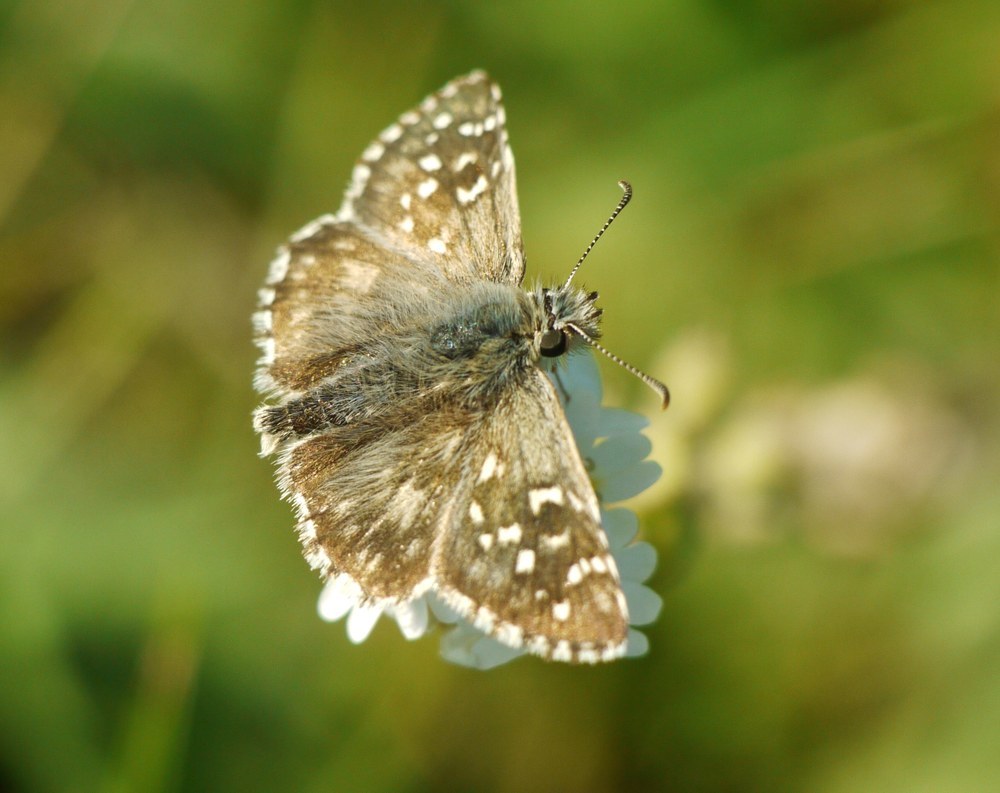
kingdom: Animalia
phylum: Arthropoda
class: Insecta
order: Lepidoptera
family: Hesperiidae
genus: Pyrgus
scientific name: Pyrgus armoricanus
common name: Oberthür's grizzled skipper
